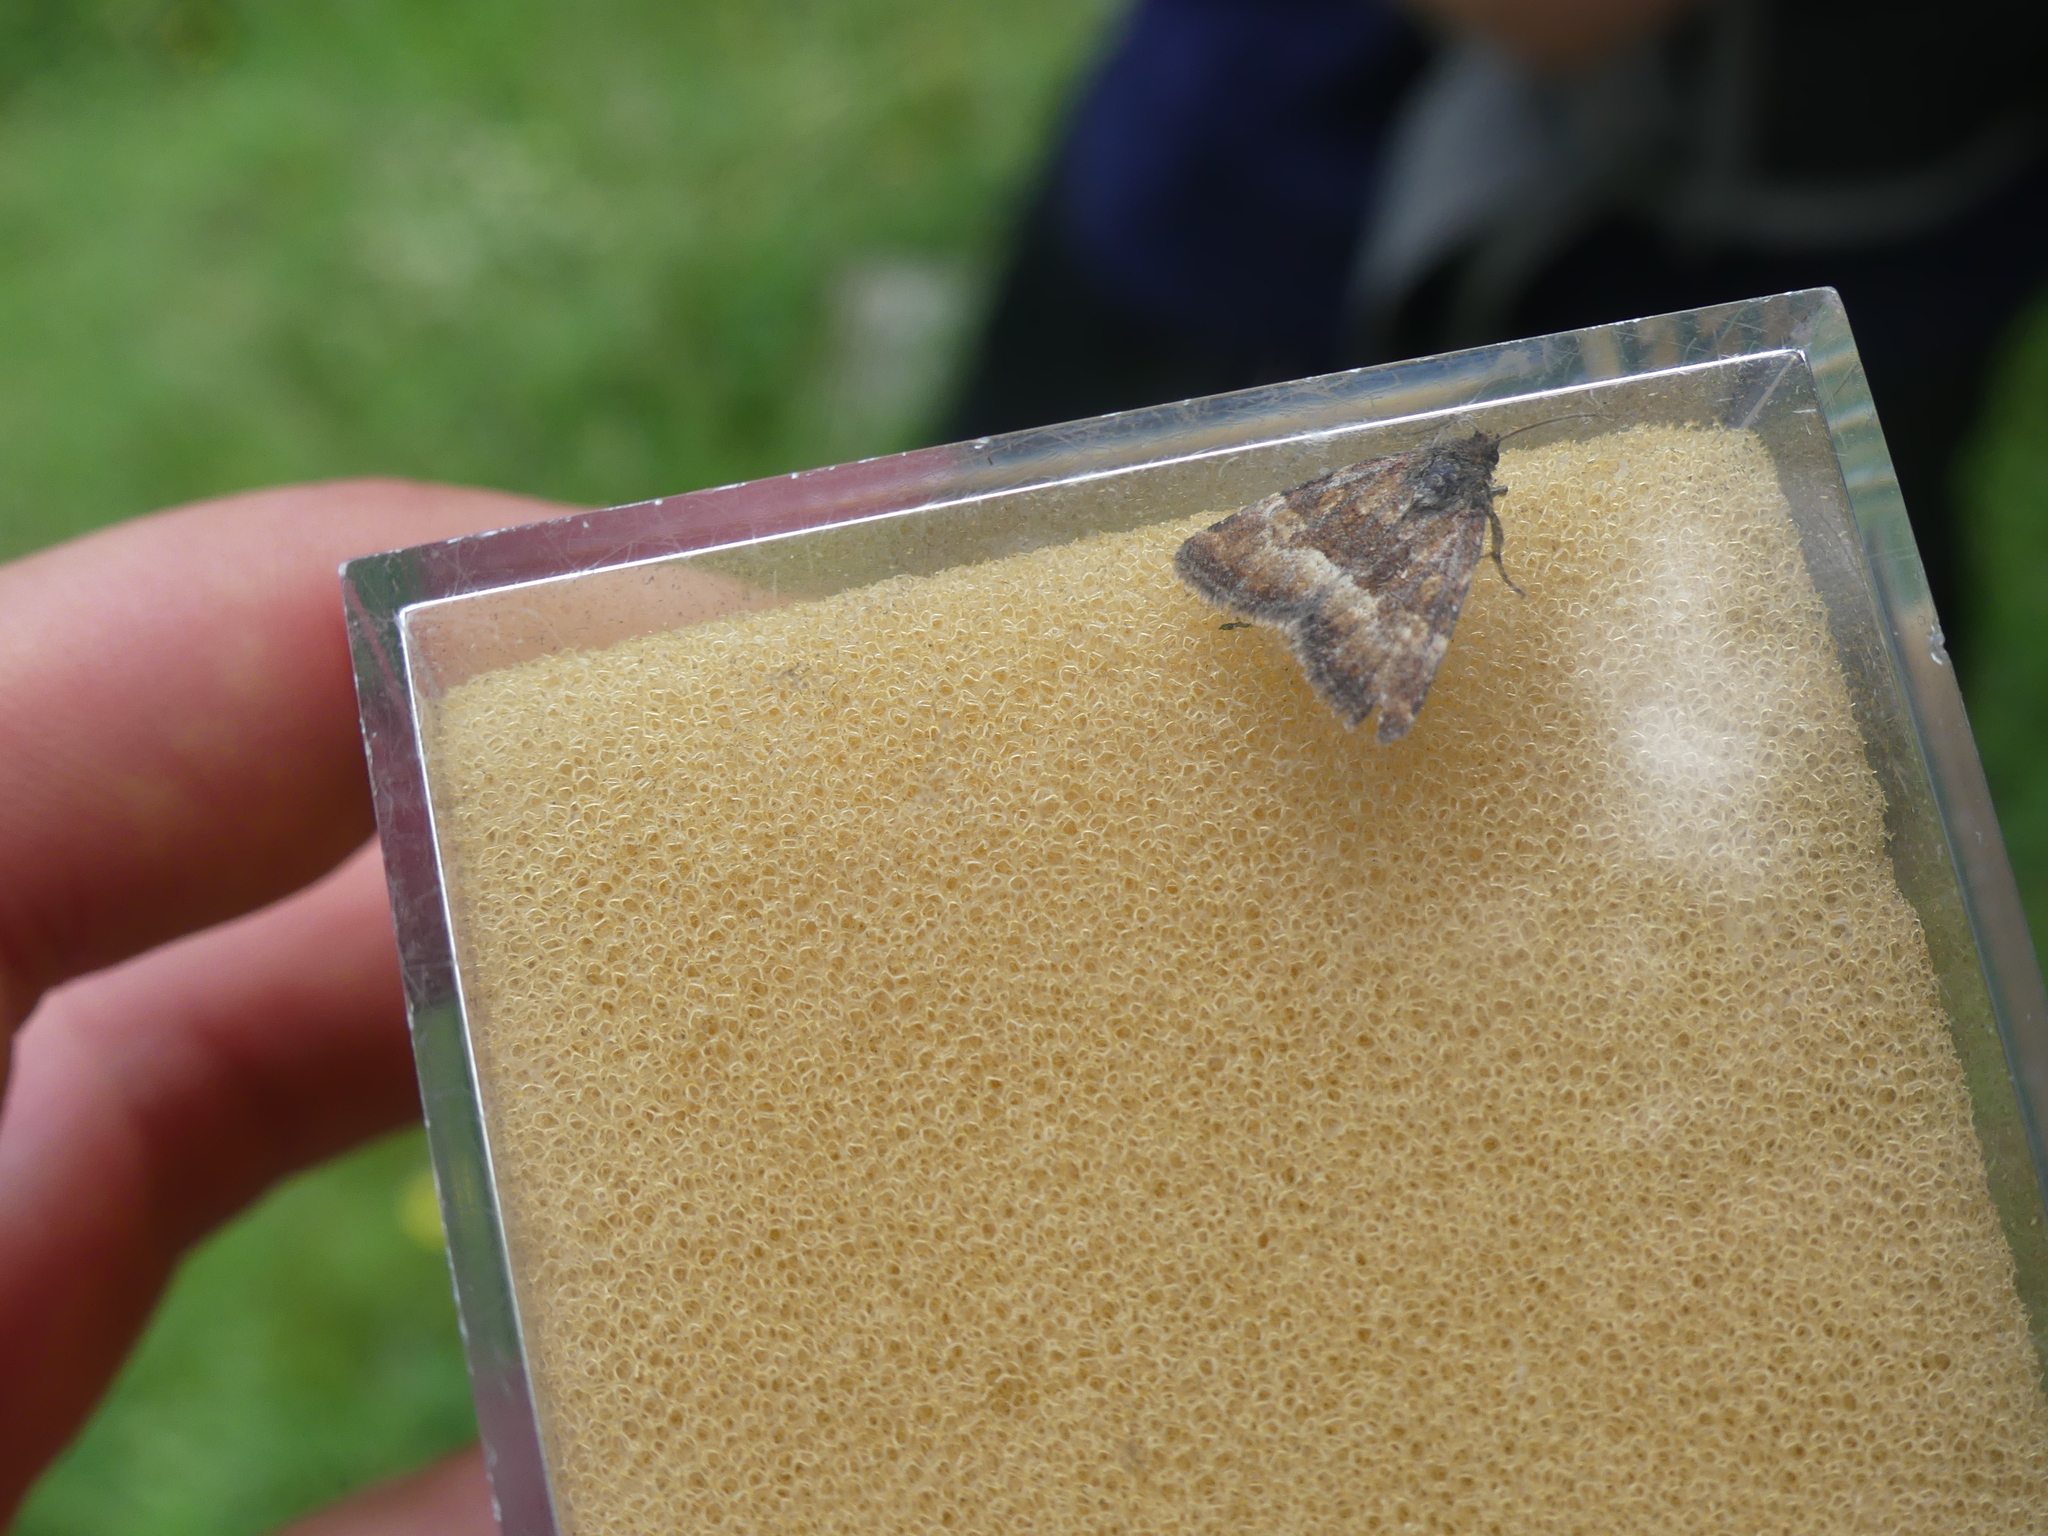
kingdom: Animalia
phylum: Arthropoda
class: Insecta
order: Lepidoptera
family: Noctuidae
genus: Photedes
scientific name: Photedes captiuncula
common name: Least minor
